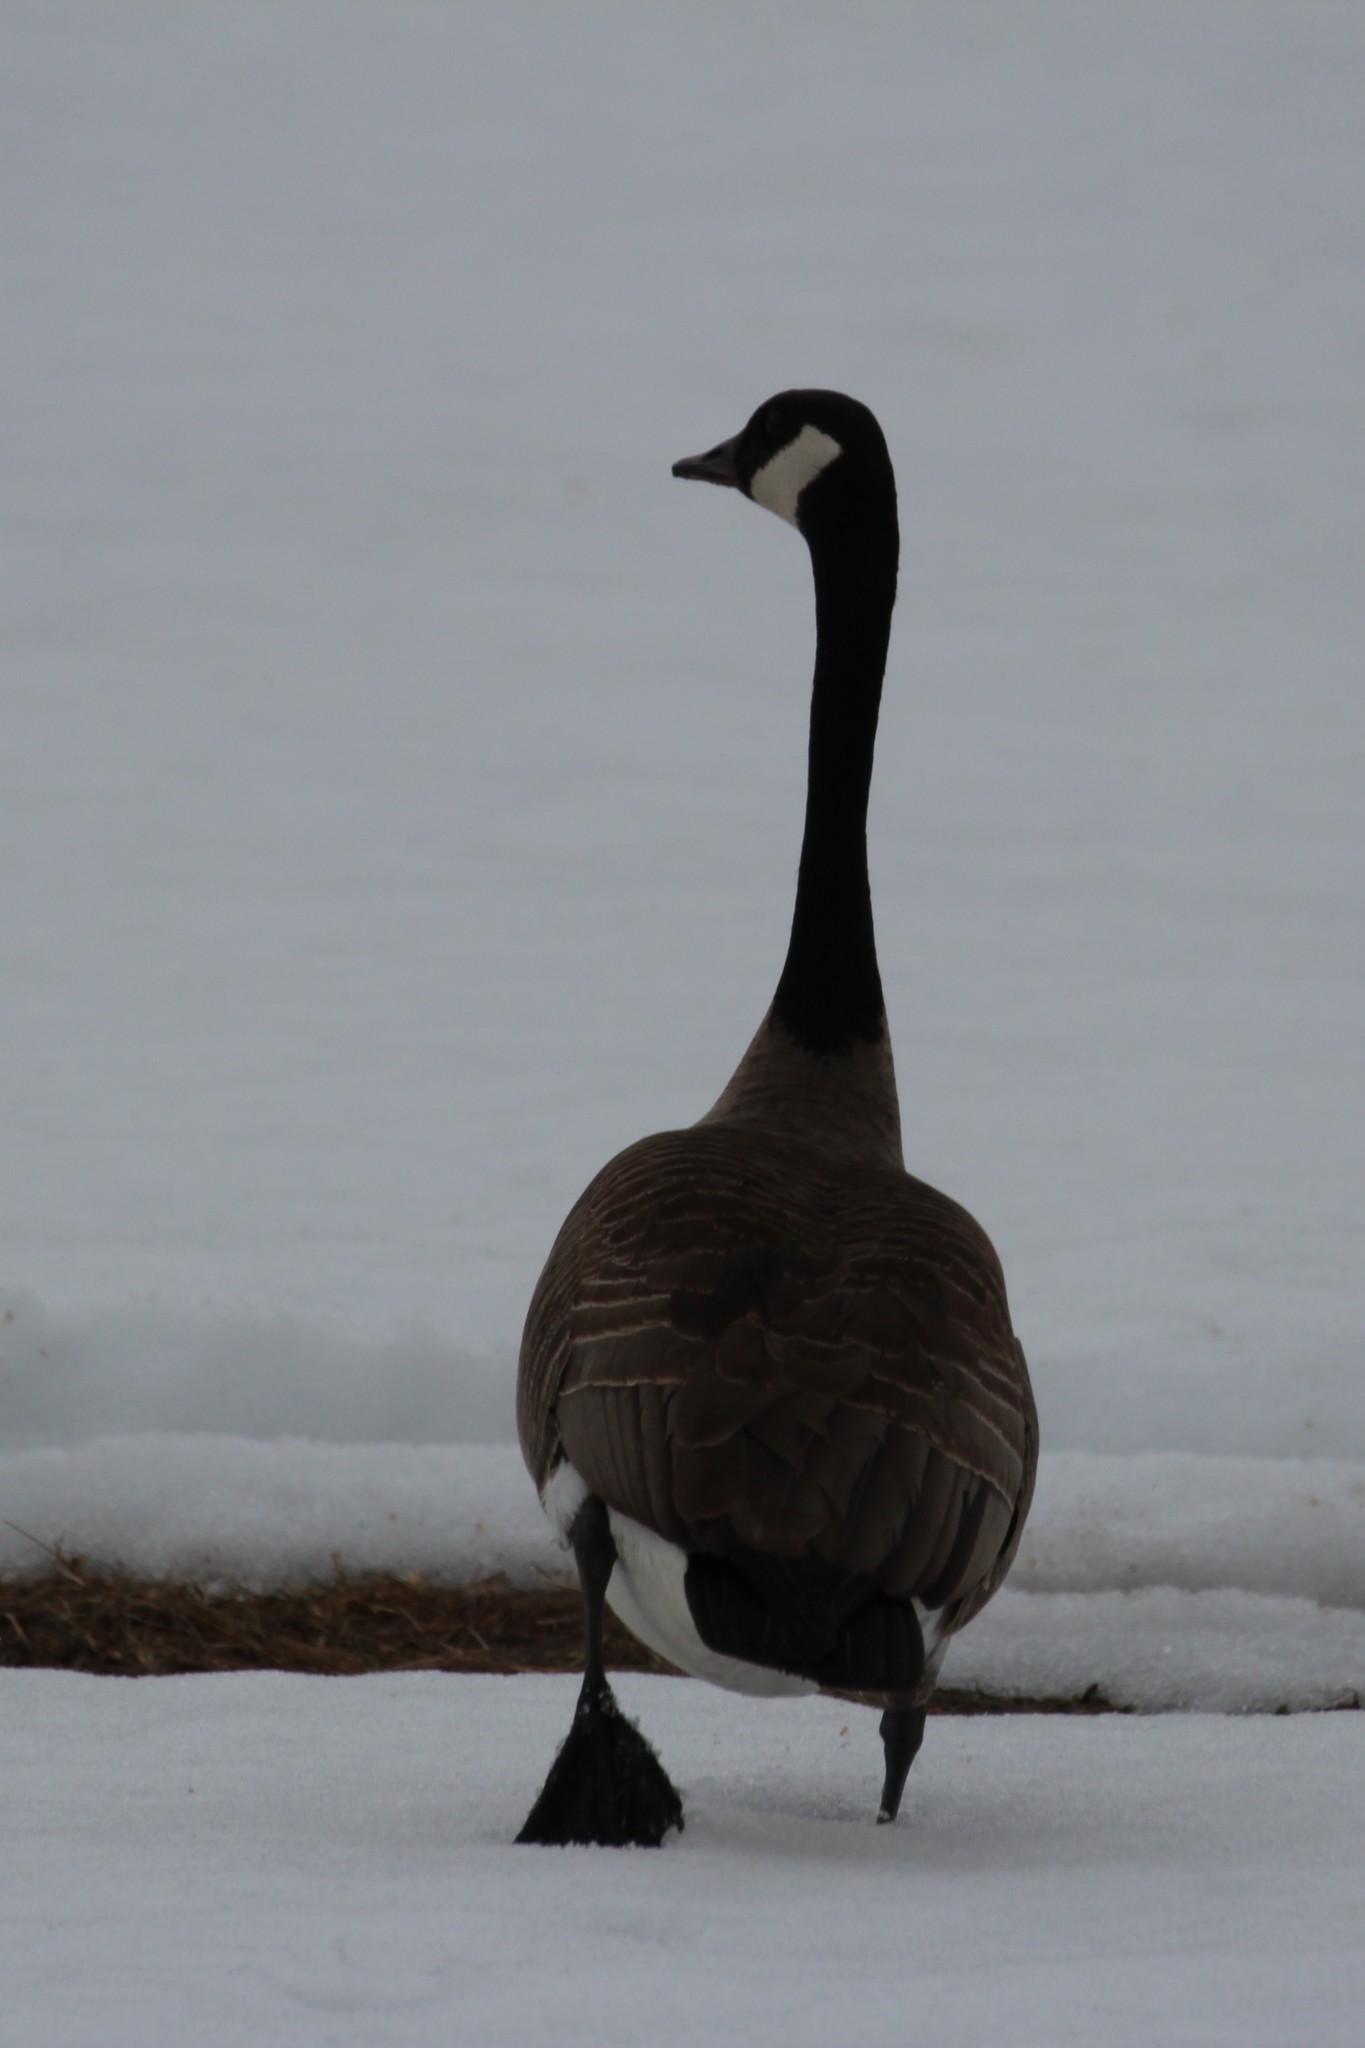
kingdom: Animalia
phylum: Chordata
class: Aves
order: Anseriformes
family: Anatidae
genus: Branta
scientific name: Branta canadensis
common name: Canada goose
